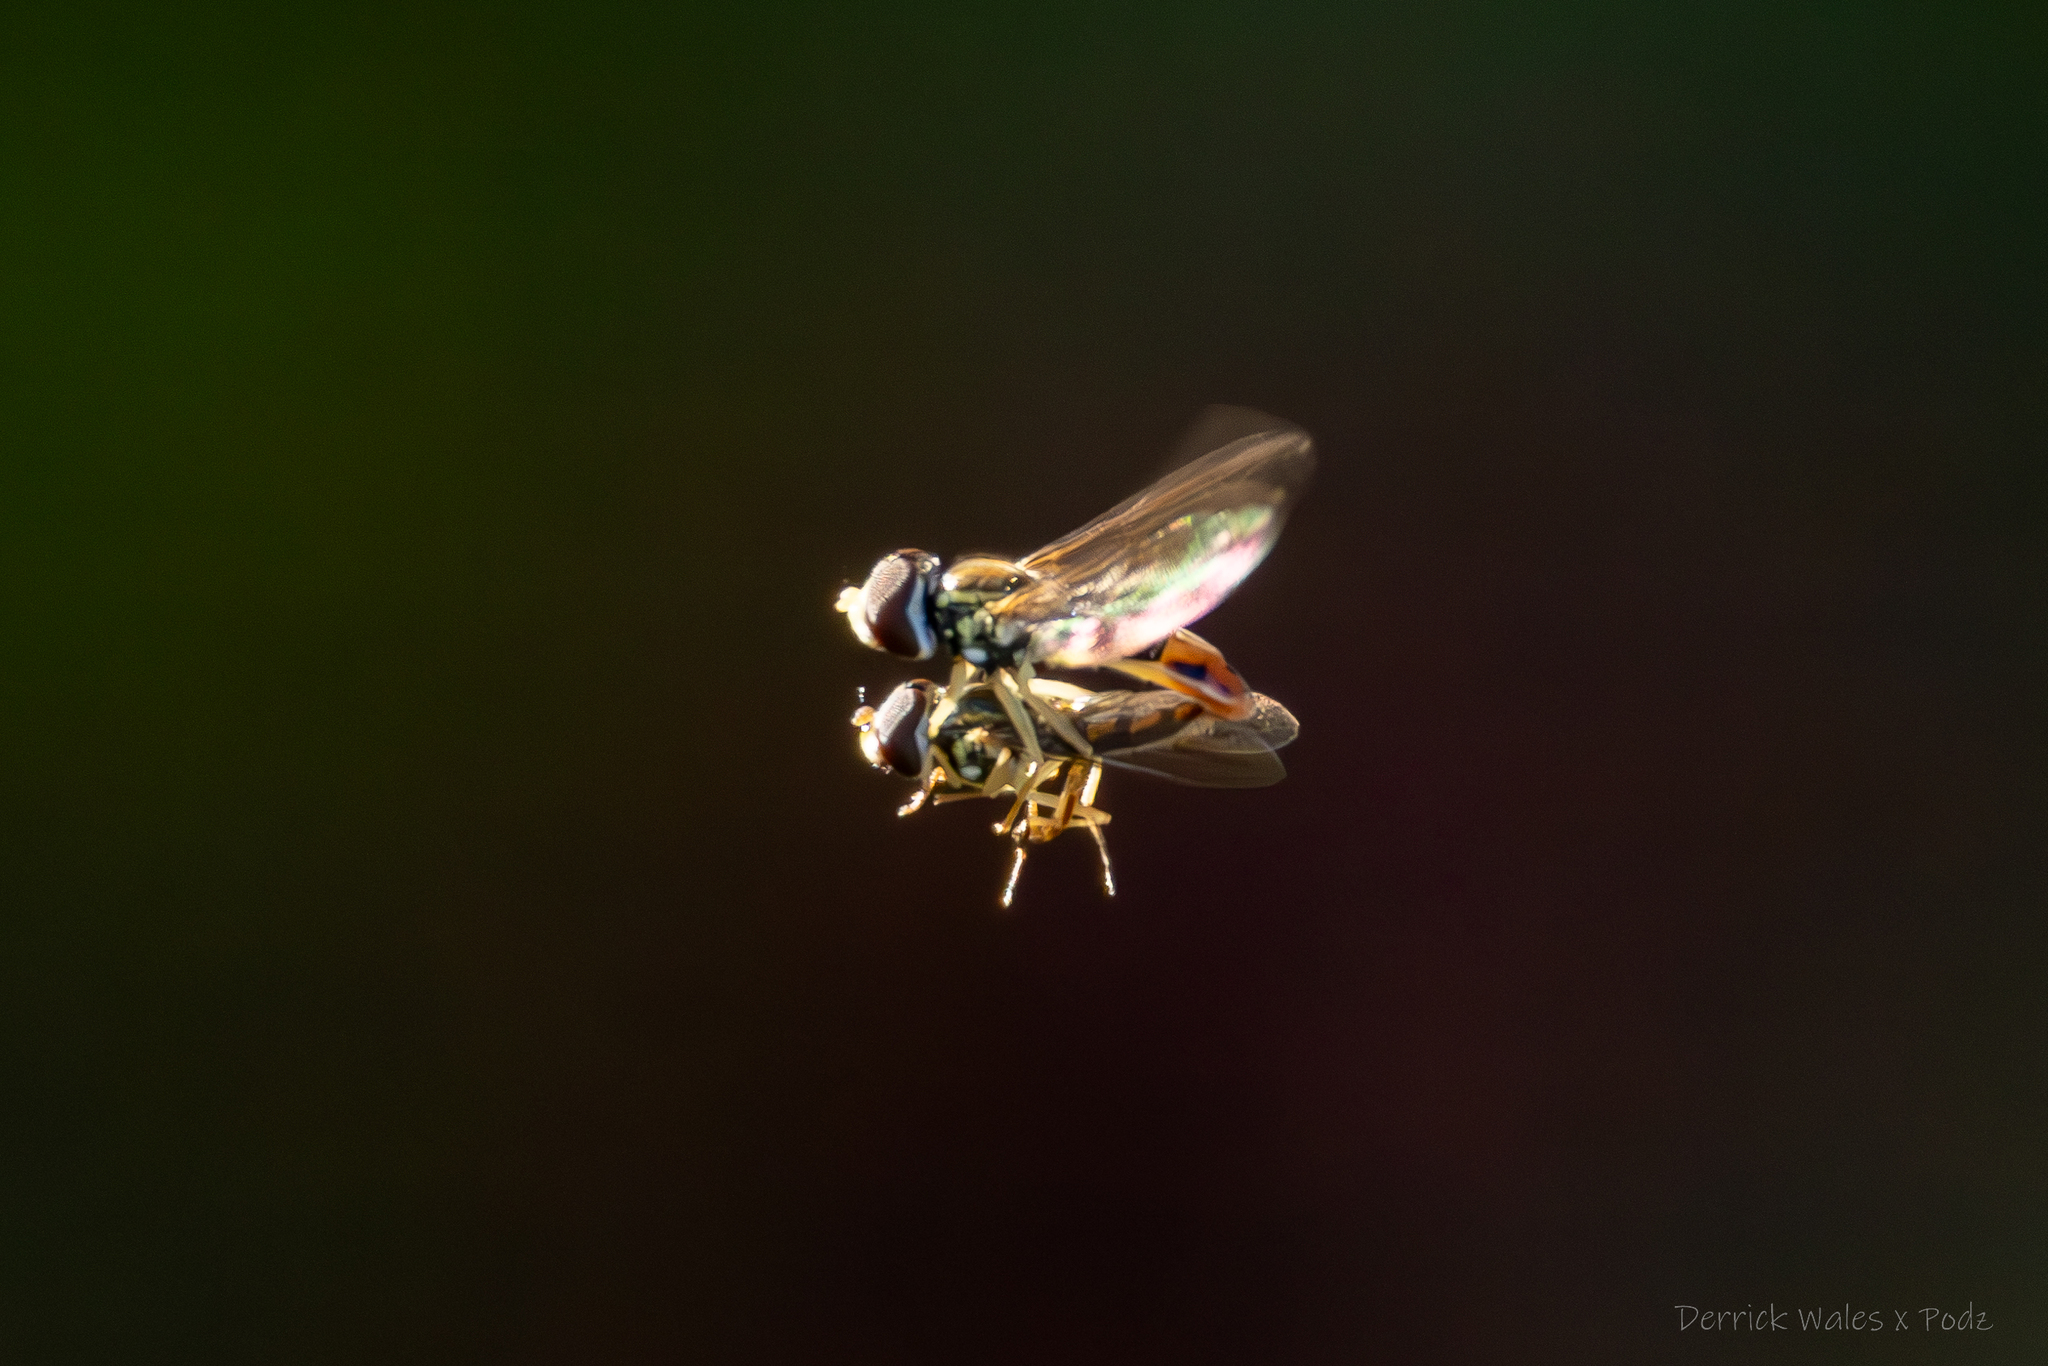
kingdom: Animalia
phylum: Arthropoda
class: Insecta
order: Diptera
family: Syrphidae
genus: Toxomerus
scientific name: Toxomerus marginatus
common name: Syrphid fly
